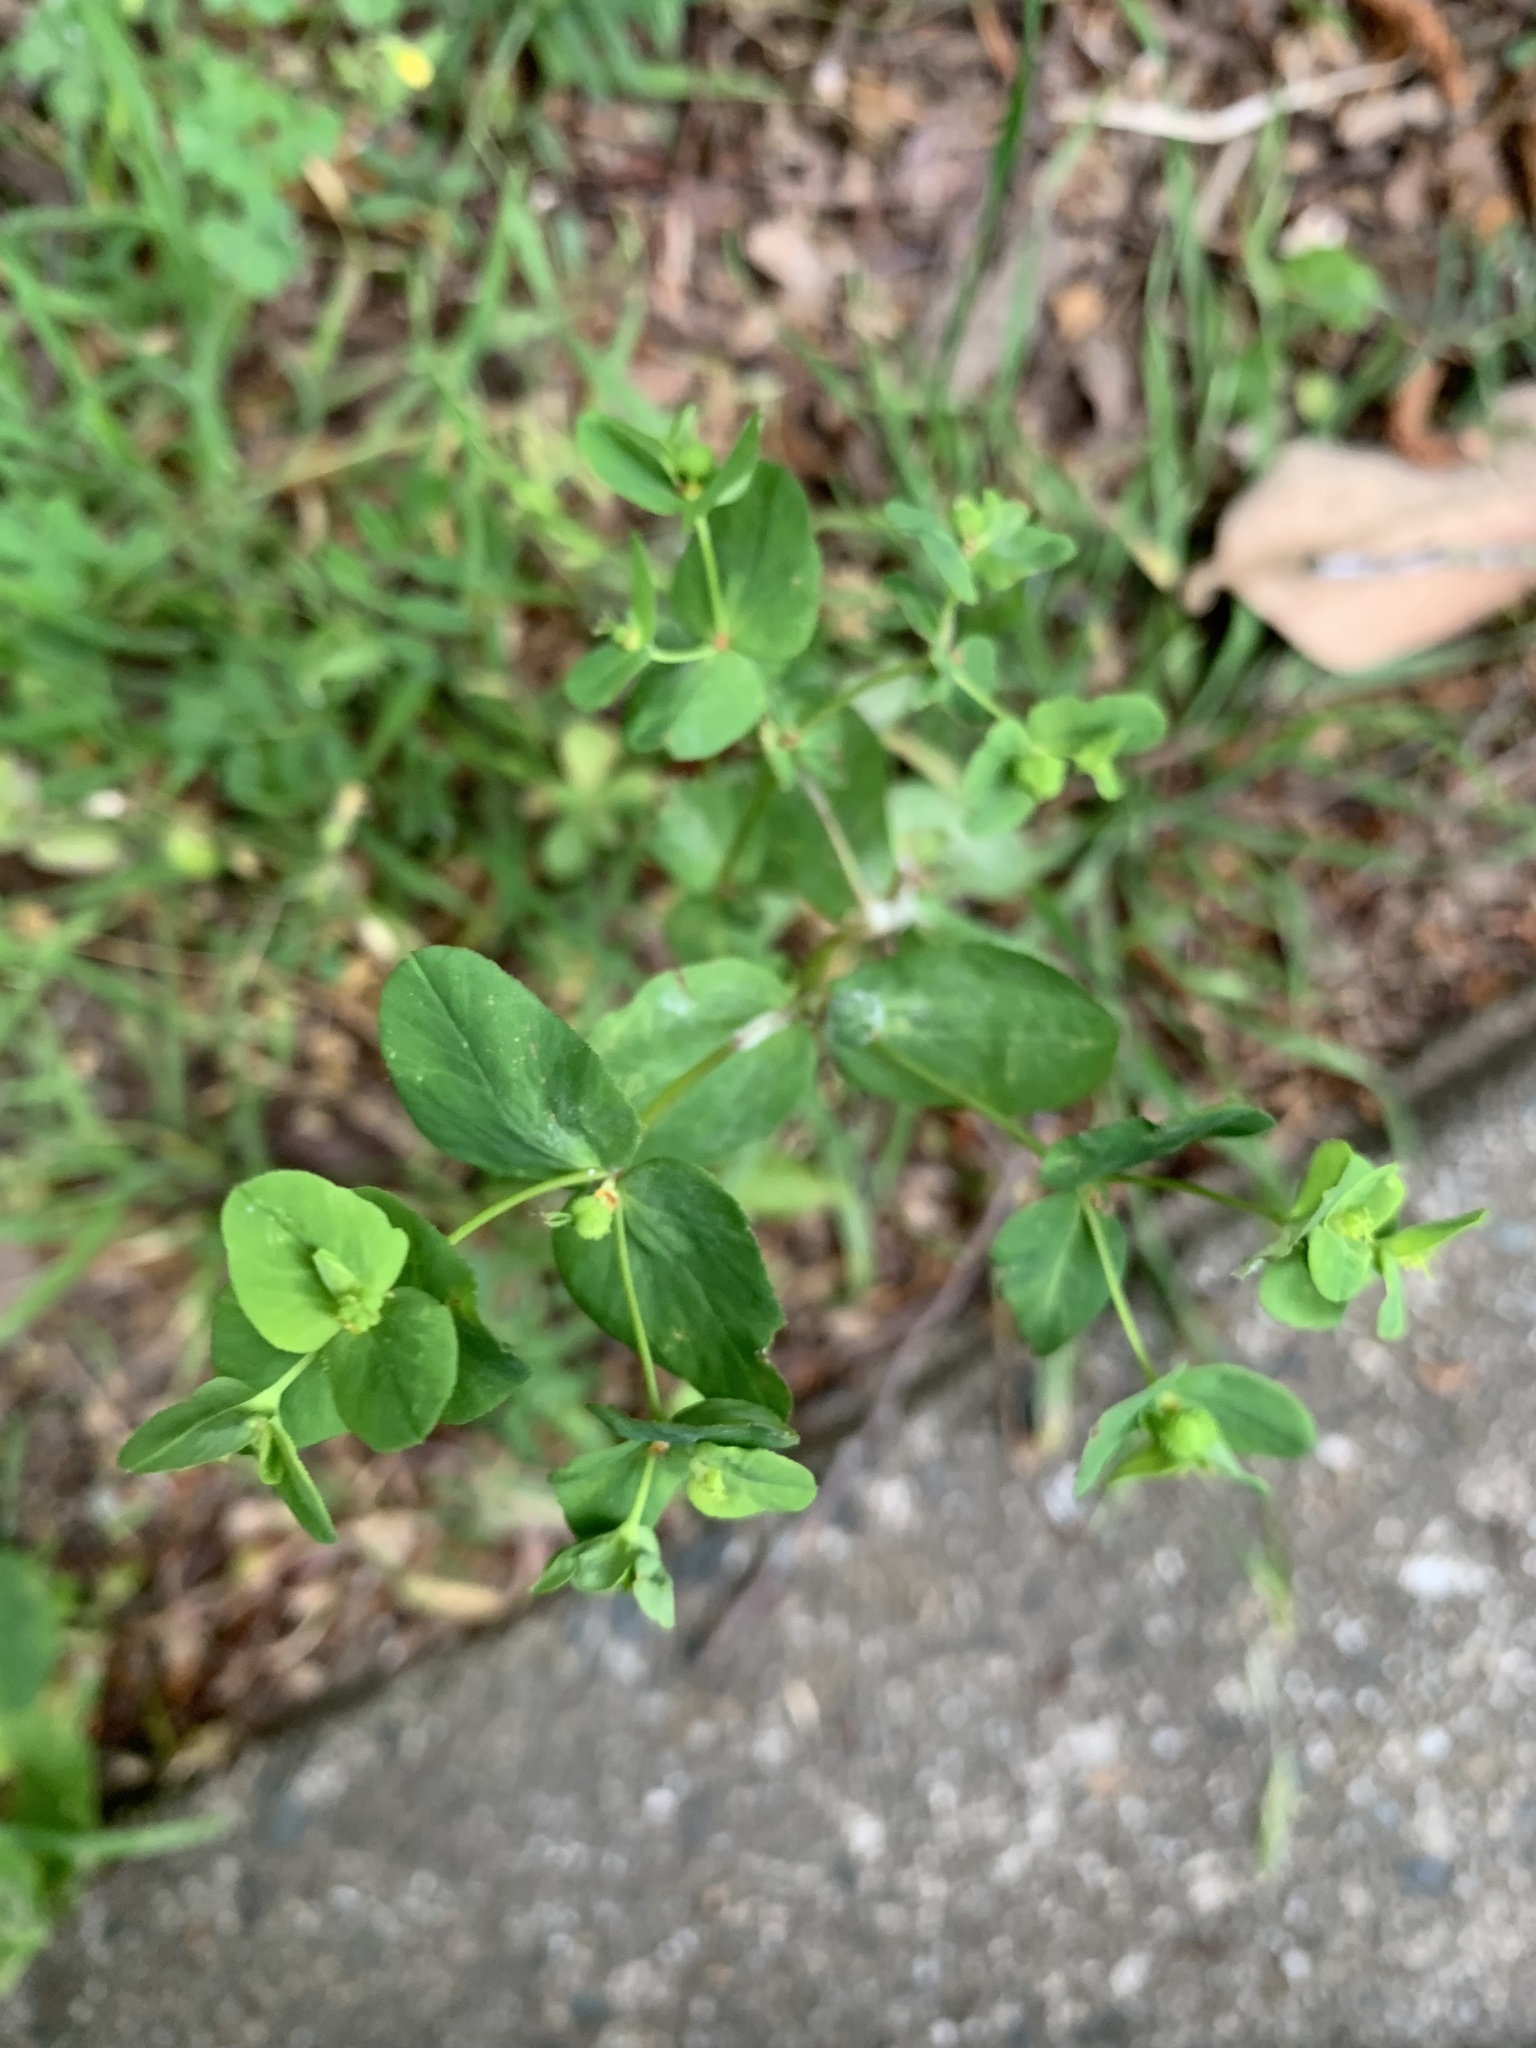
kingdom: Plantae
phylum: Tracheophyta
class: Magnoliopsida
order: Malpighiales
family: Euphorbiaceae
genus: Euphorbia
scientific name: Euphorbia spathulata
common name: Blunt spurge
